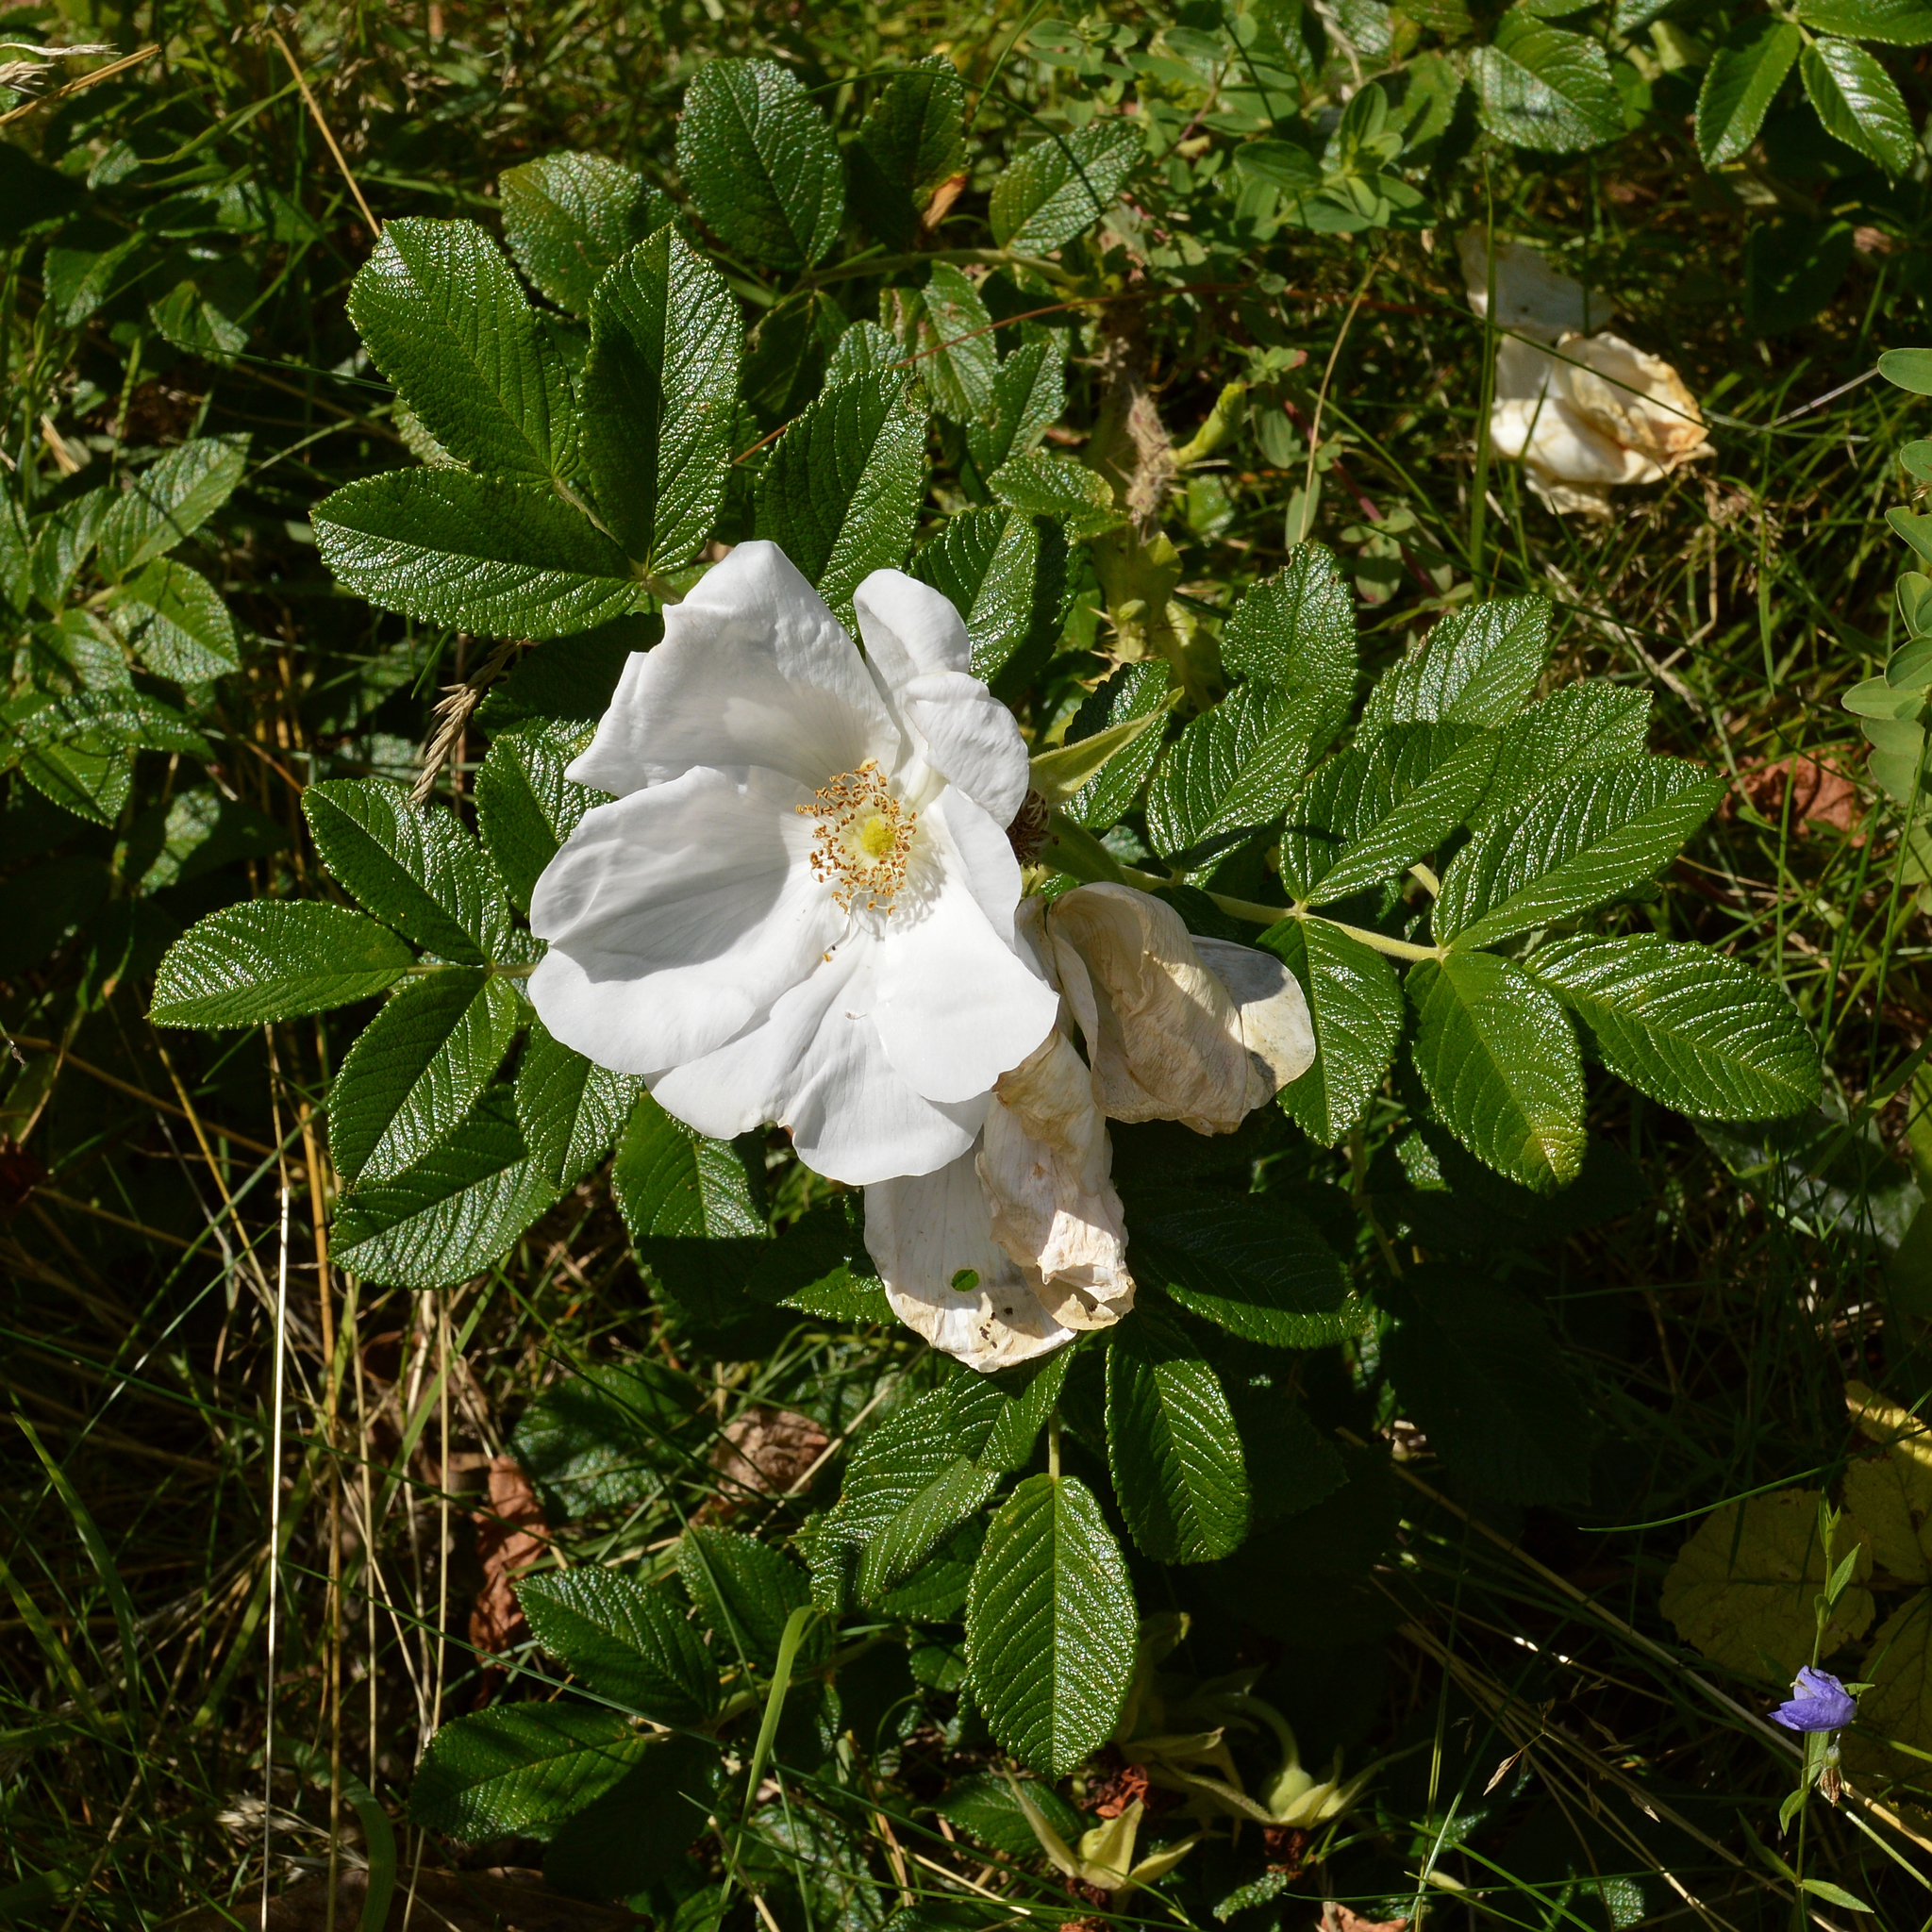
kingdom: Plantae
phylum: Tracheophyta
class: Magnoliopsida
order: Rosales
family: Rosaceae
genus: Rosa
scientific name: Rosa rugosa
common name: Japanese rose
